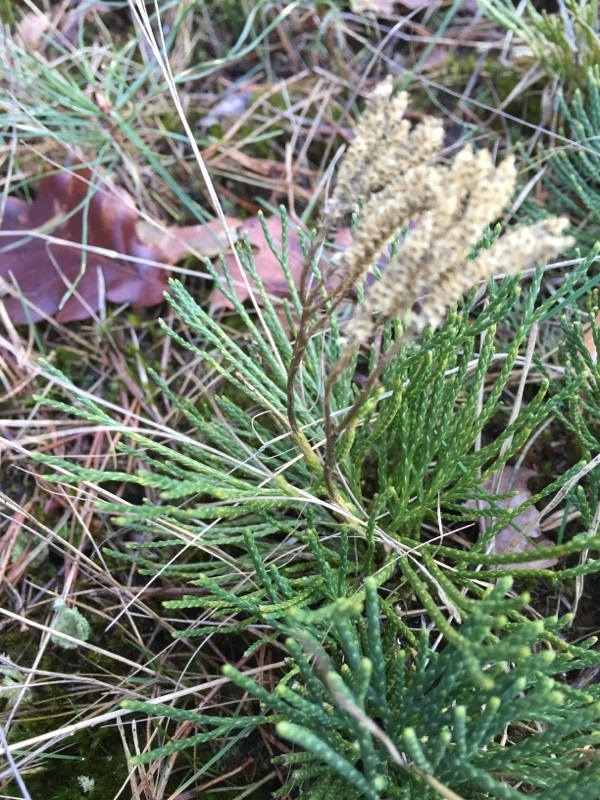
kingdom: Plantae
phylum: Tracheophyta
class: Lycopodiopsida
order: Lycopodiales
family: Lycopodiaceae
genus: Diphasiastrum
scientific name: Diphasiastrum tristachyum
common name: Blue ground-cedar
